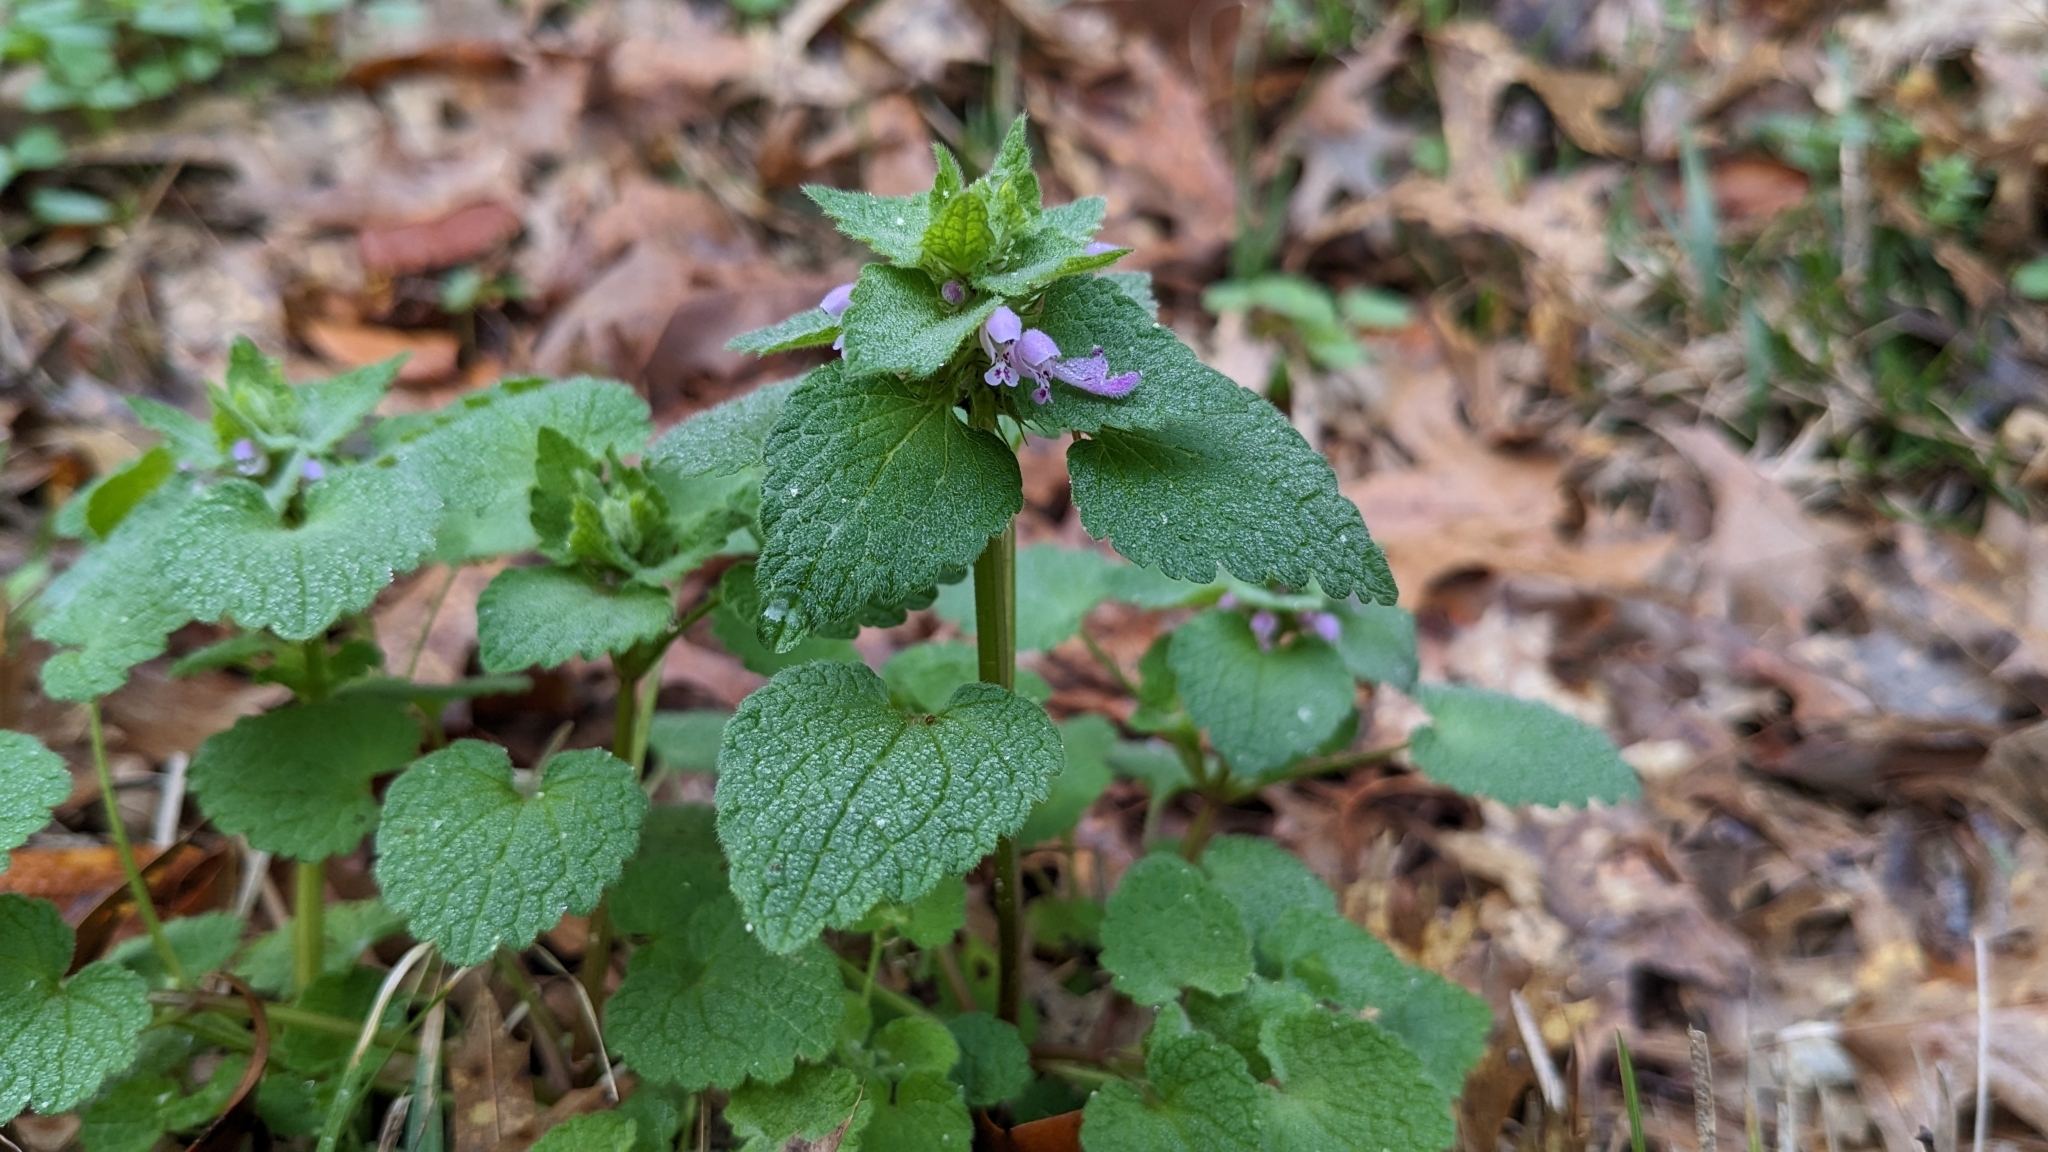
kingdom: Plantae
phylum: Tracheophyta
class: Magnoliopsida
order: Lamiales
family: Lamiaceae
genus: Lamium
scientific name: Lamium purpureum
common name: Red dead-nettle
